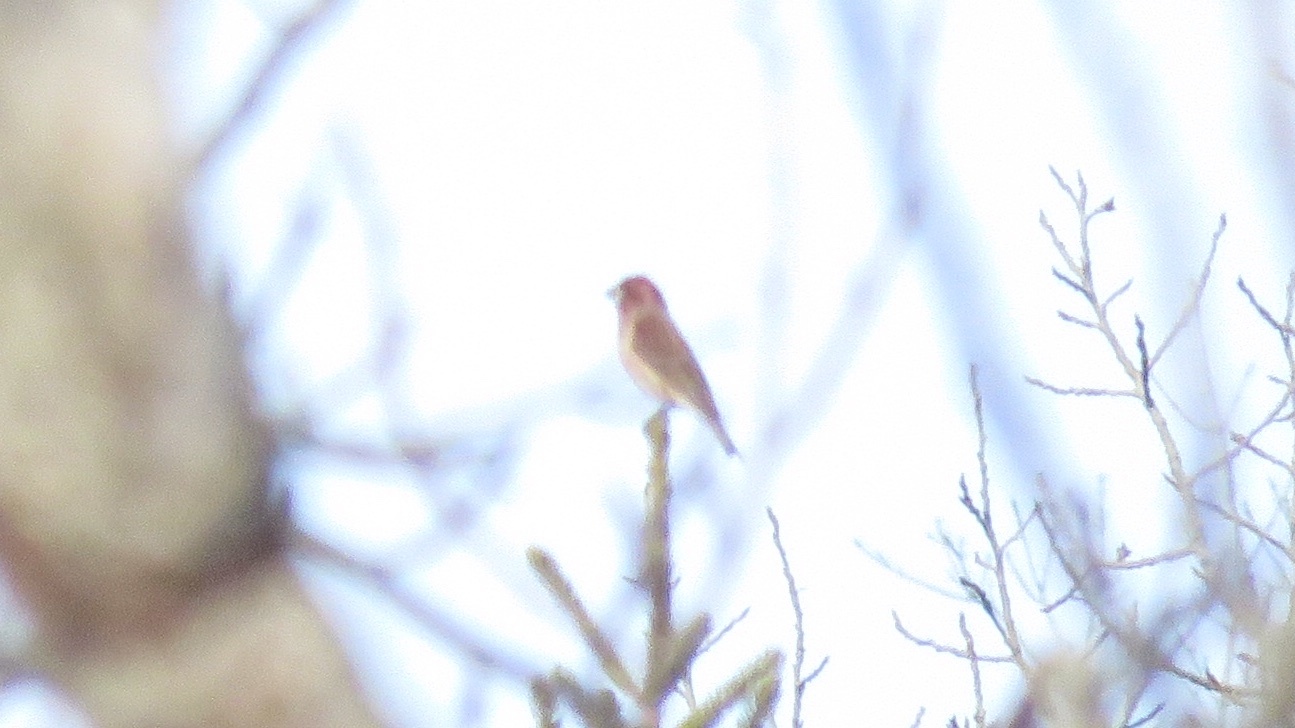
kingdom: Animalia
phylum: Chordata
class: Aves
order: Passeriformes
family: Fringillidae
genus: Haemorhous
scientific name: Haemorhous purpureus
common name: Purple finch
